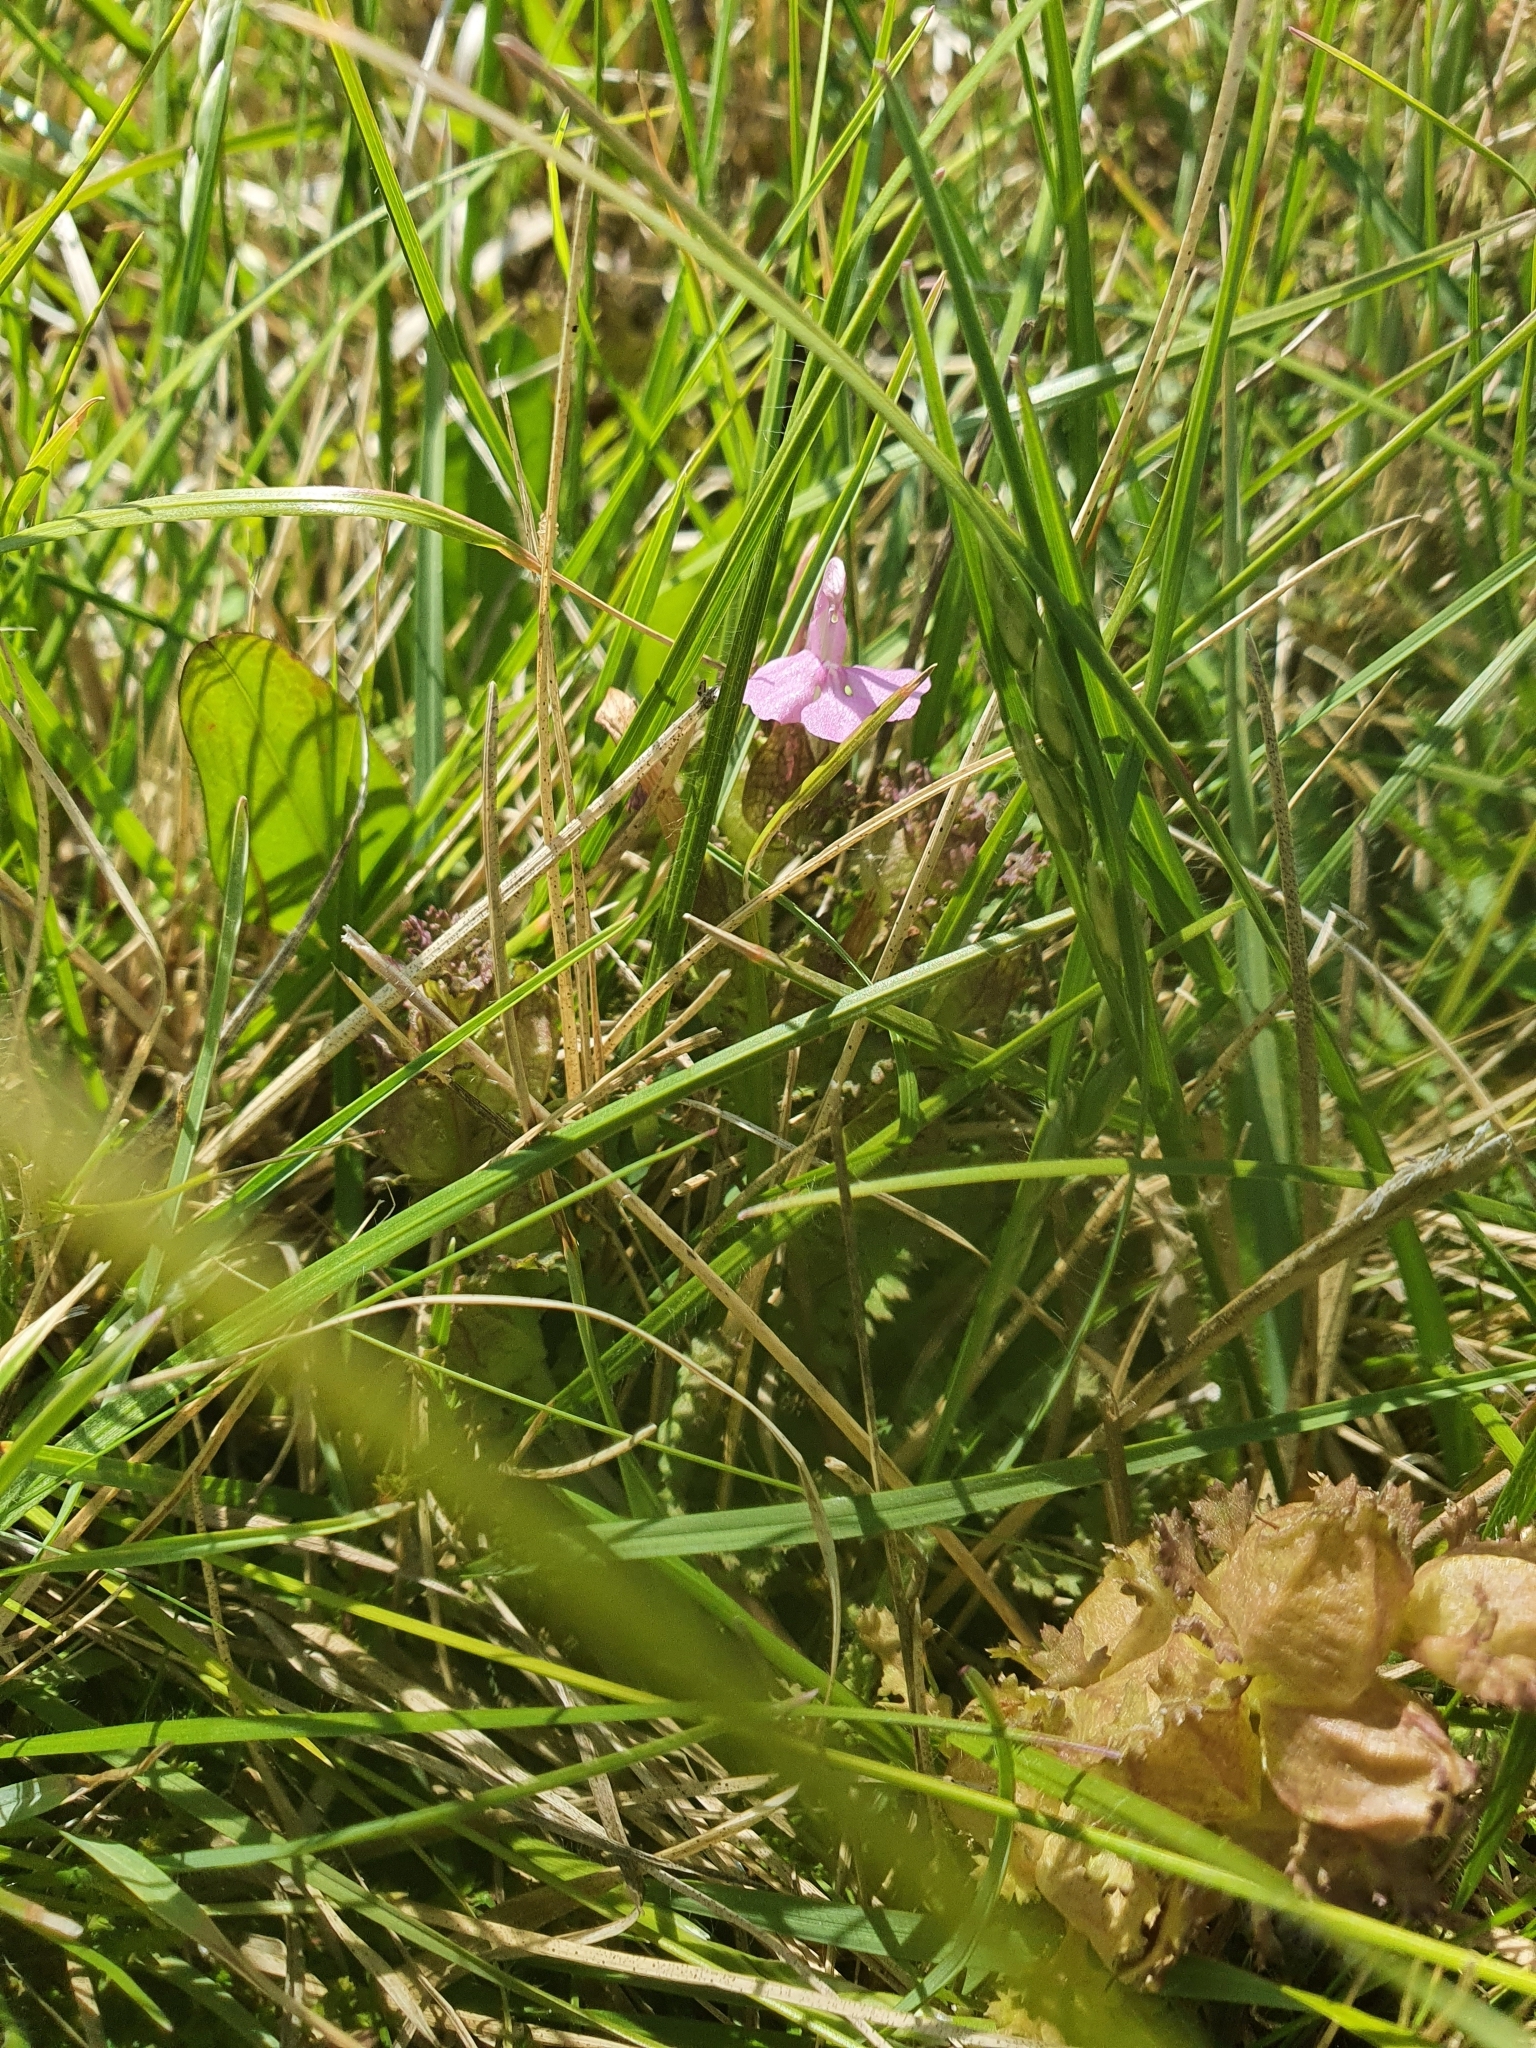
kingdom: Plantae
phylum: Tracheophyta
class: Magnoliopsida
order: Lamiales
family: Orobanchaceae
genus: Pedicularis
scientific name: Pedicularis sylvatica
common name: Lousewort
